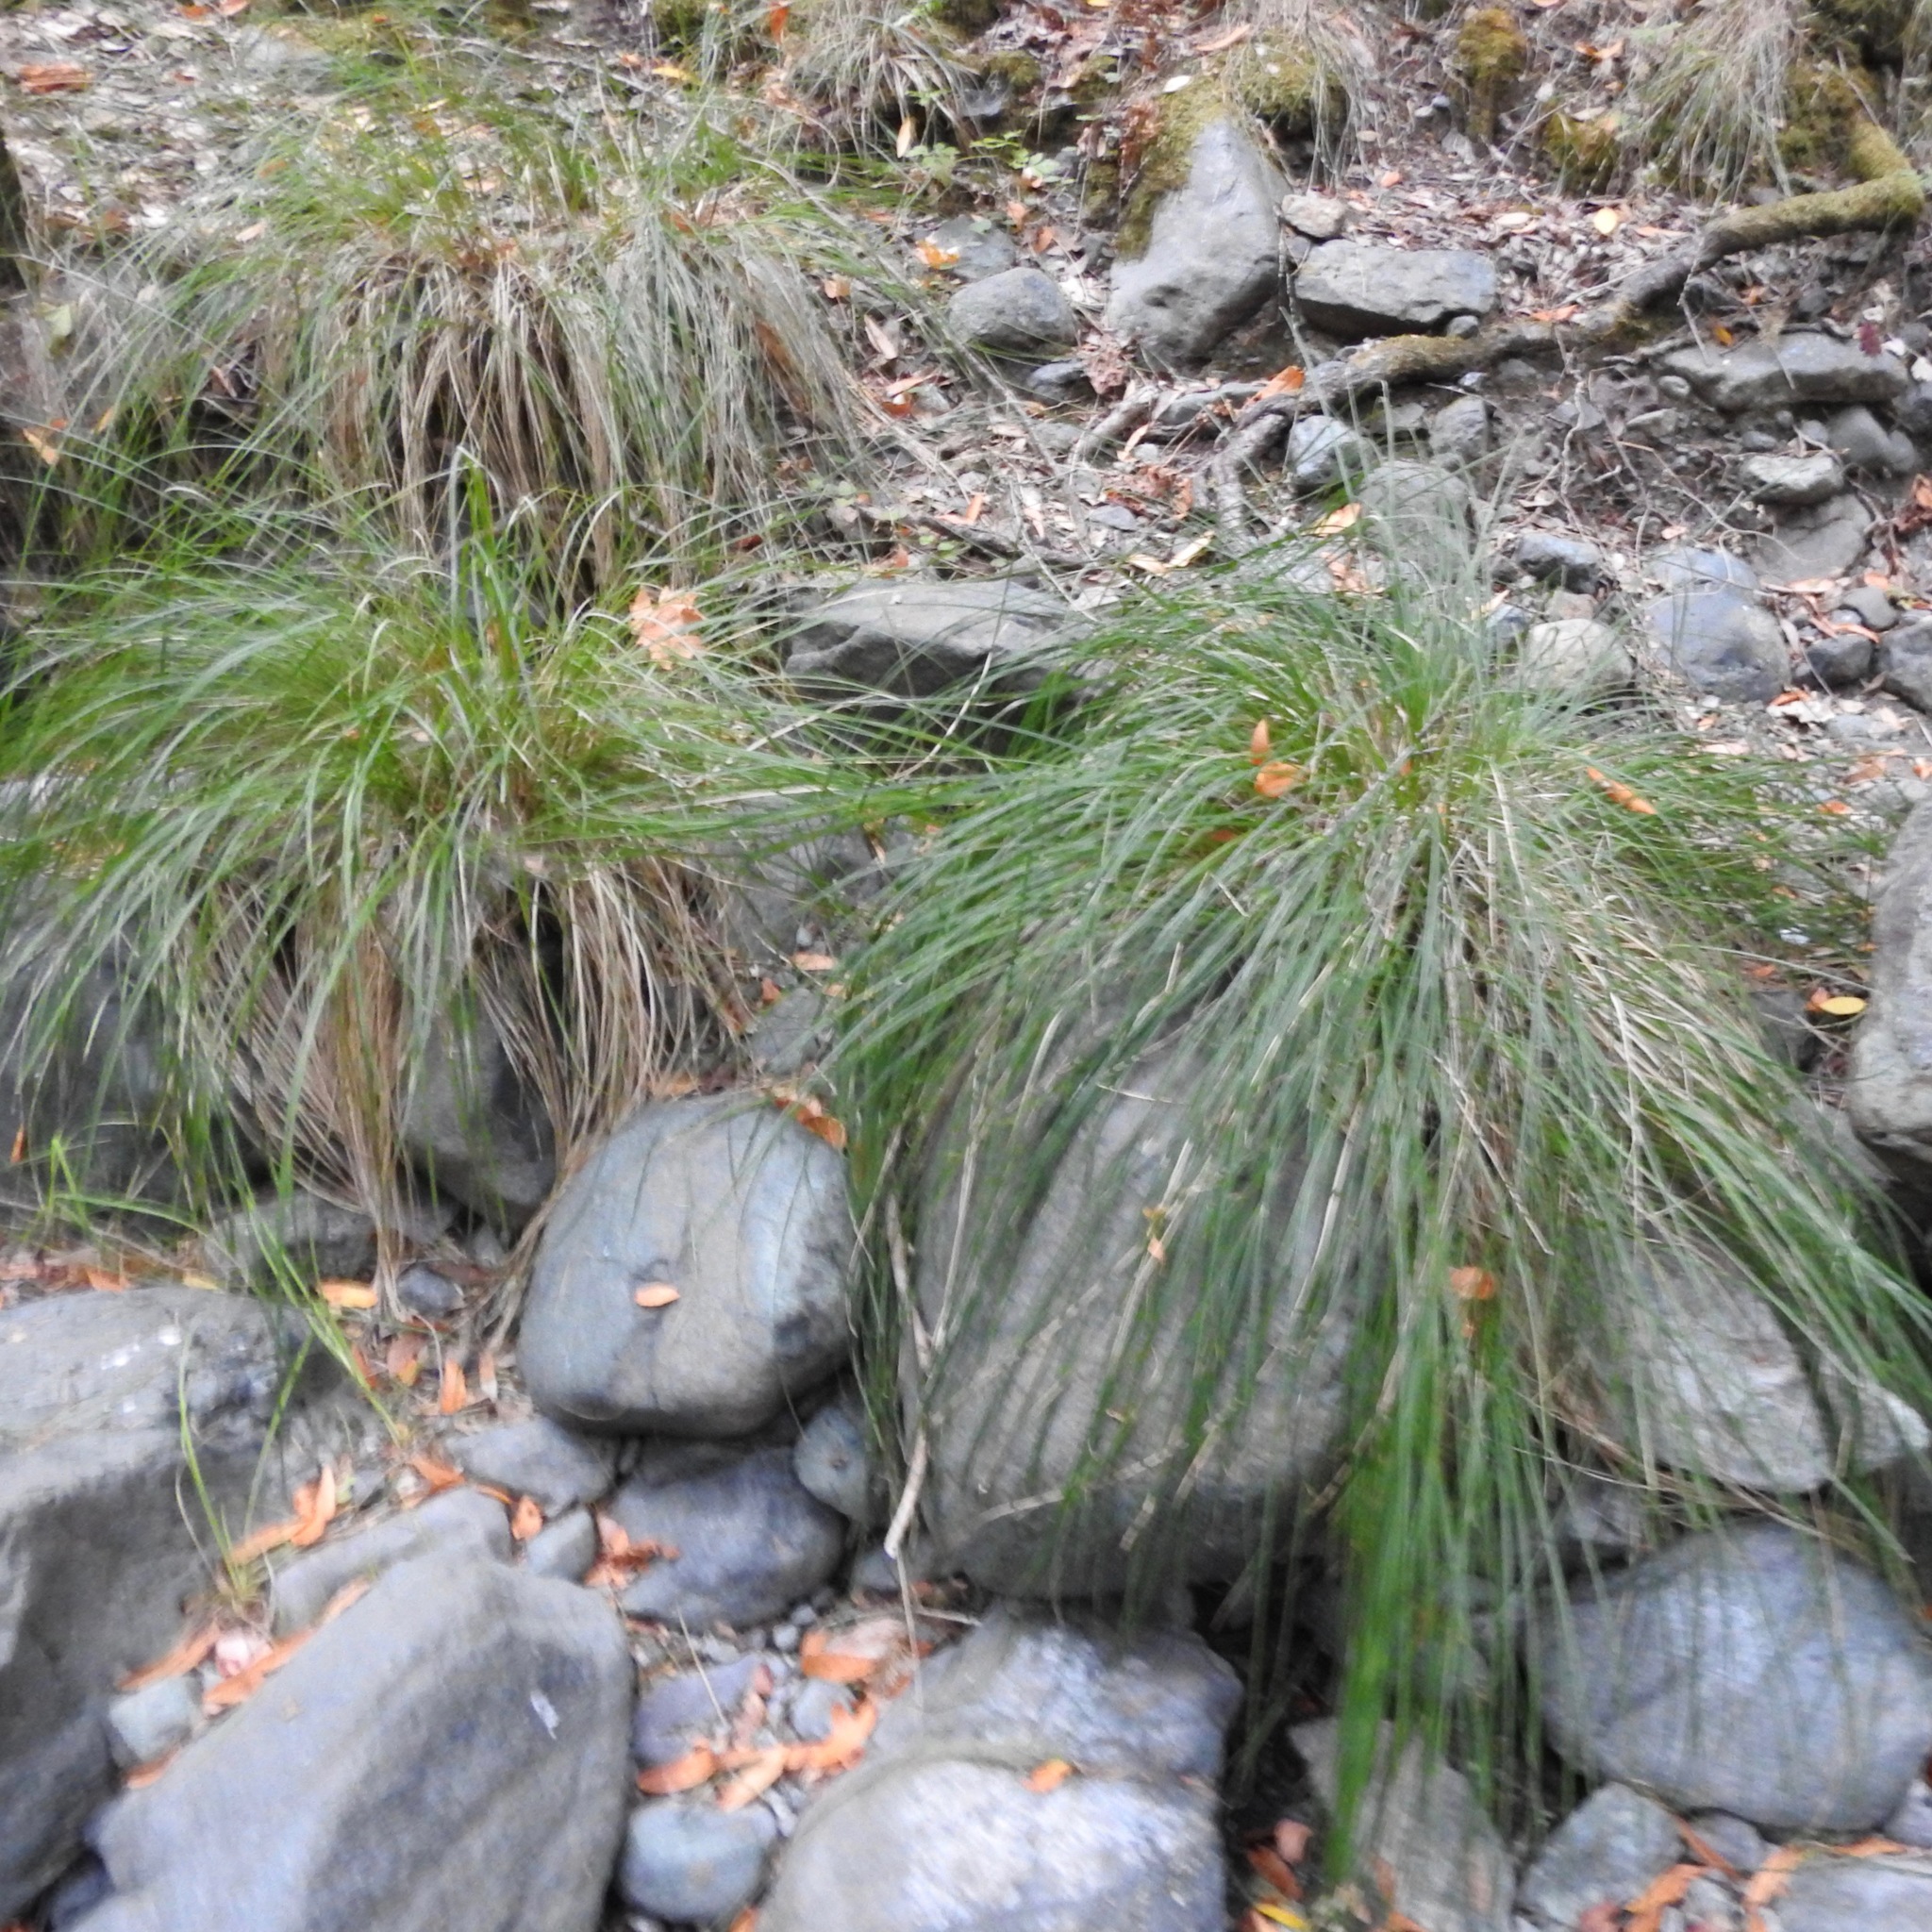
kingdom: Plantae
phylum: Tracheophyta
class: Liliopsida
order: Poales
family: Cyperaceae
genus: Carex
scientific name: Carex nudata
